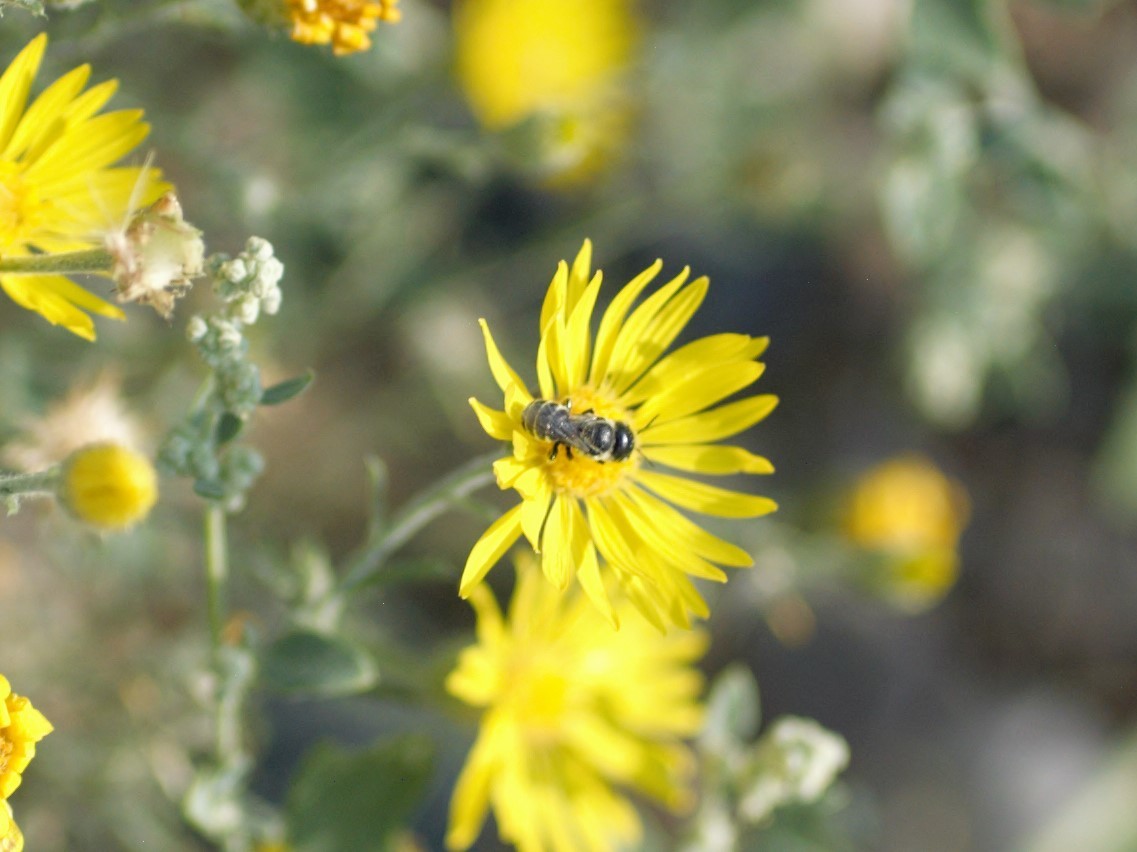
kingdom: Animalia
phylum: Arthropoda
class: Insecta
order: Hymenoptera
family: Megachilidae
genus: Ashmeadiella
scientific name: Ashmeadiella
